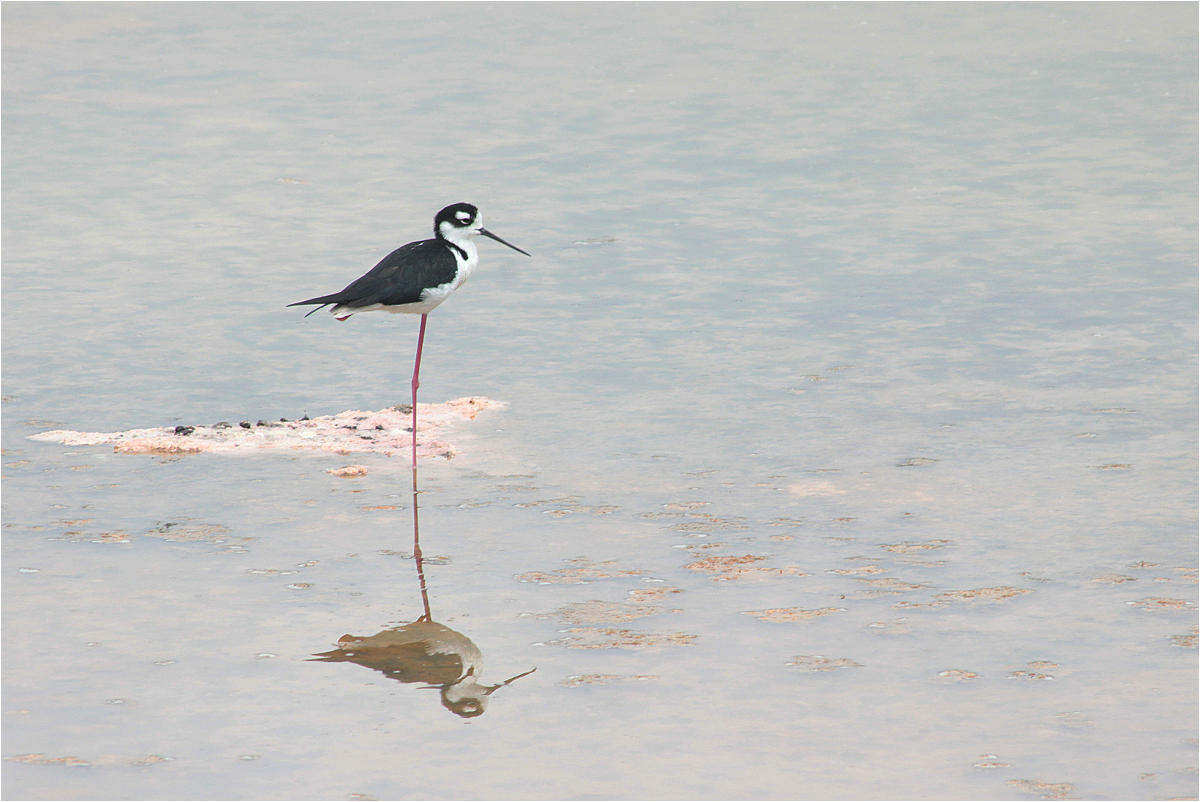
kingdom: Animalia
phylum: Chordata
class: Aves
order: Charadriiformes
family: Recurvirostridae
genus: Himantopus
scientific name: Himantopus mexicanus
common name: Black-necked stilt
